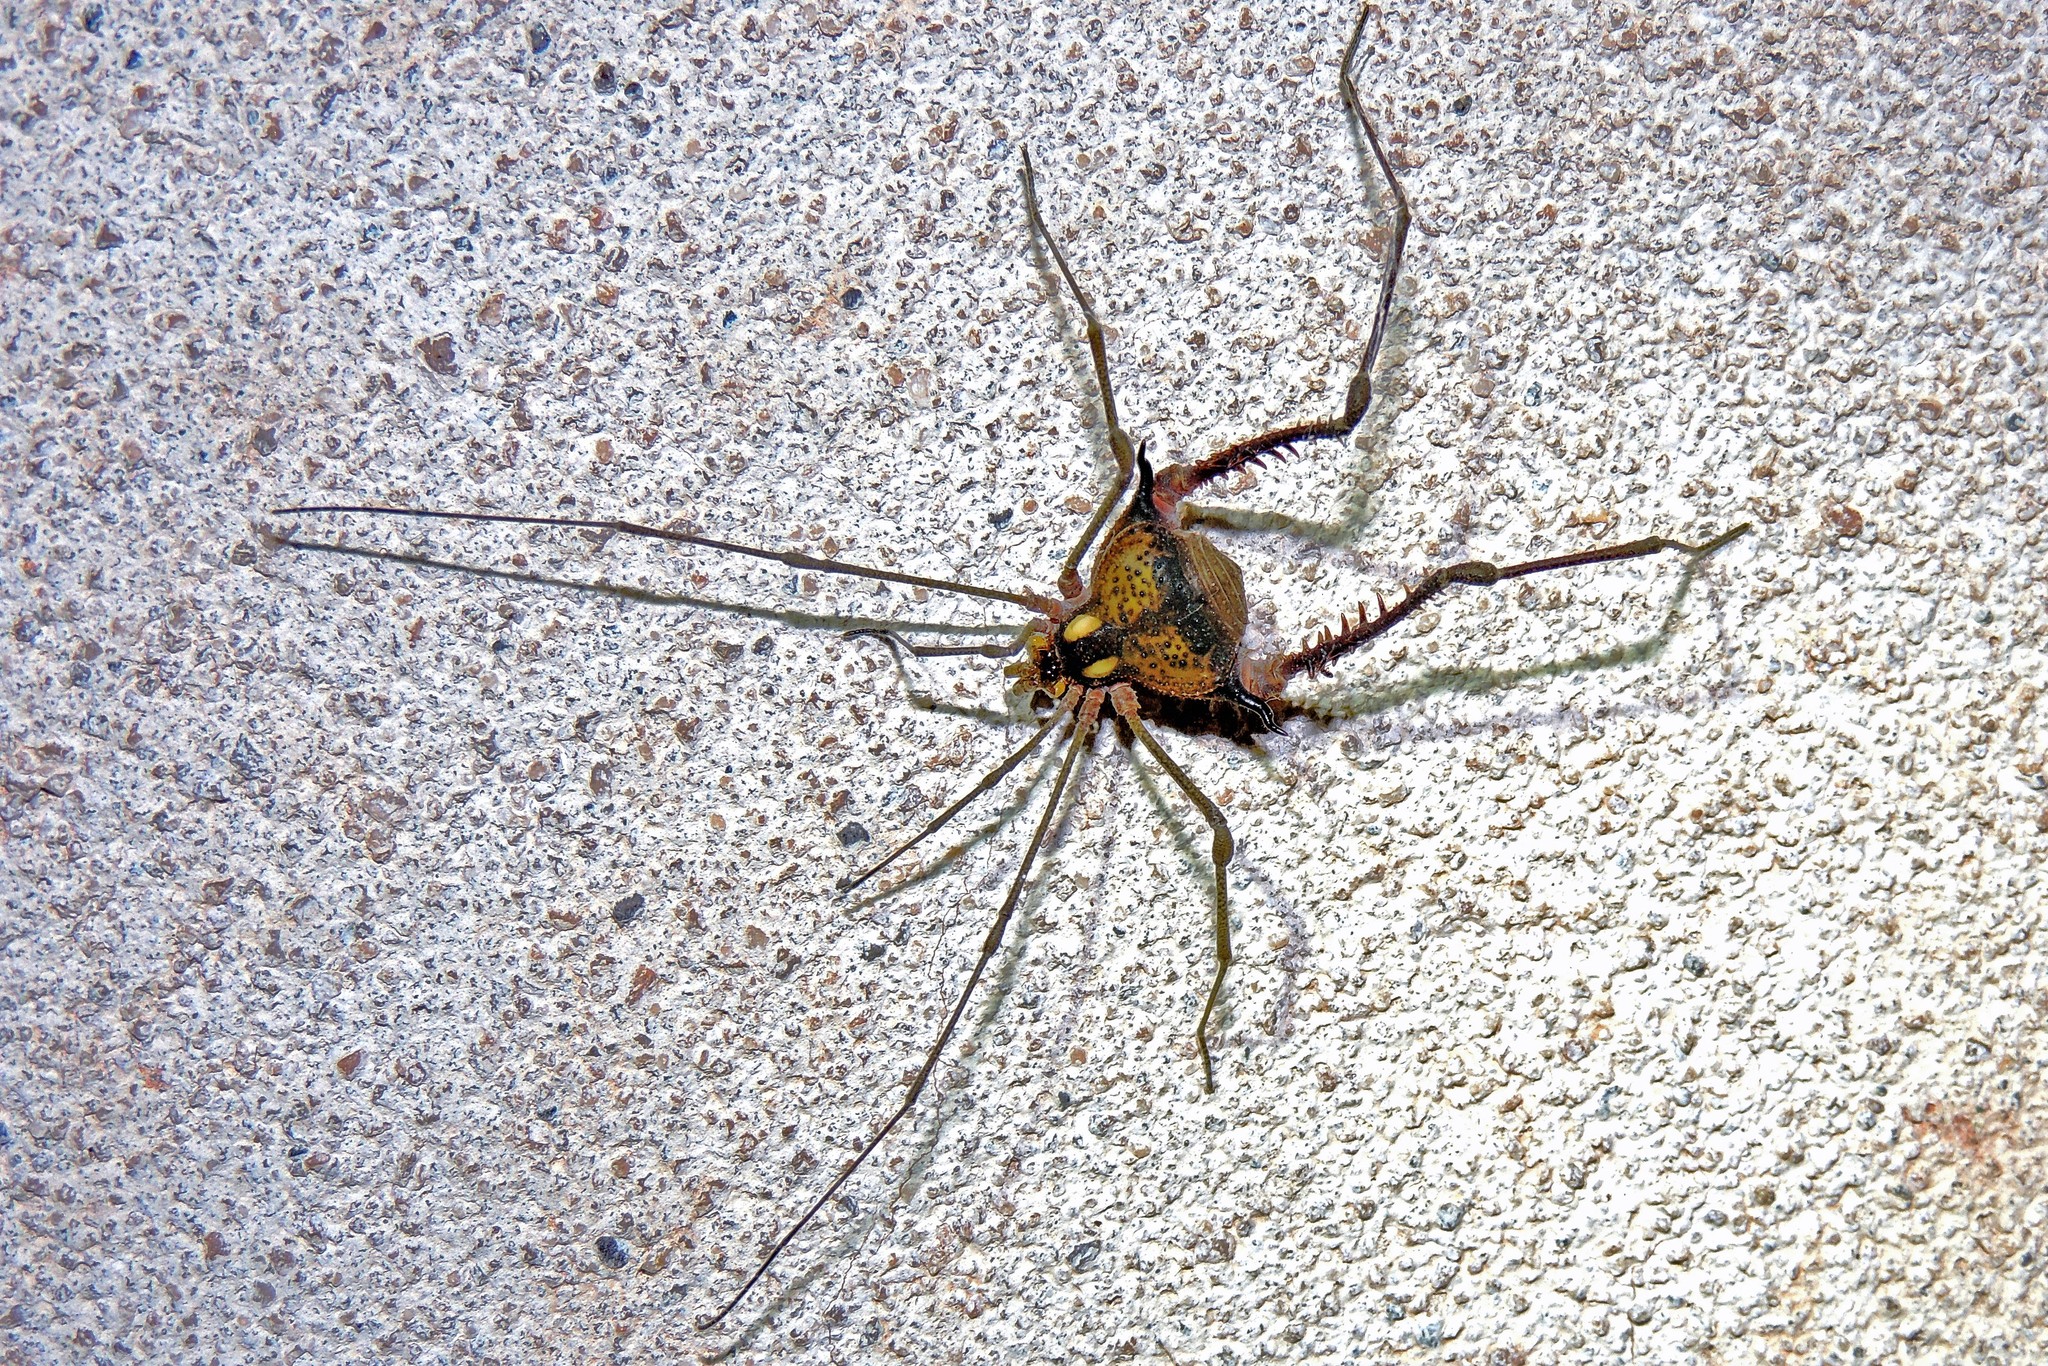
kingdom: Animalia
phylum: Arthropoda
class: Arachnida
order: Opiliones
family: Gonyleptidae
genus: Parampheres
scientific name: Parampheres pectinatus
